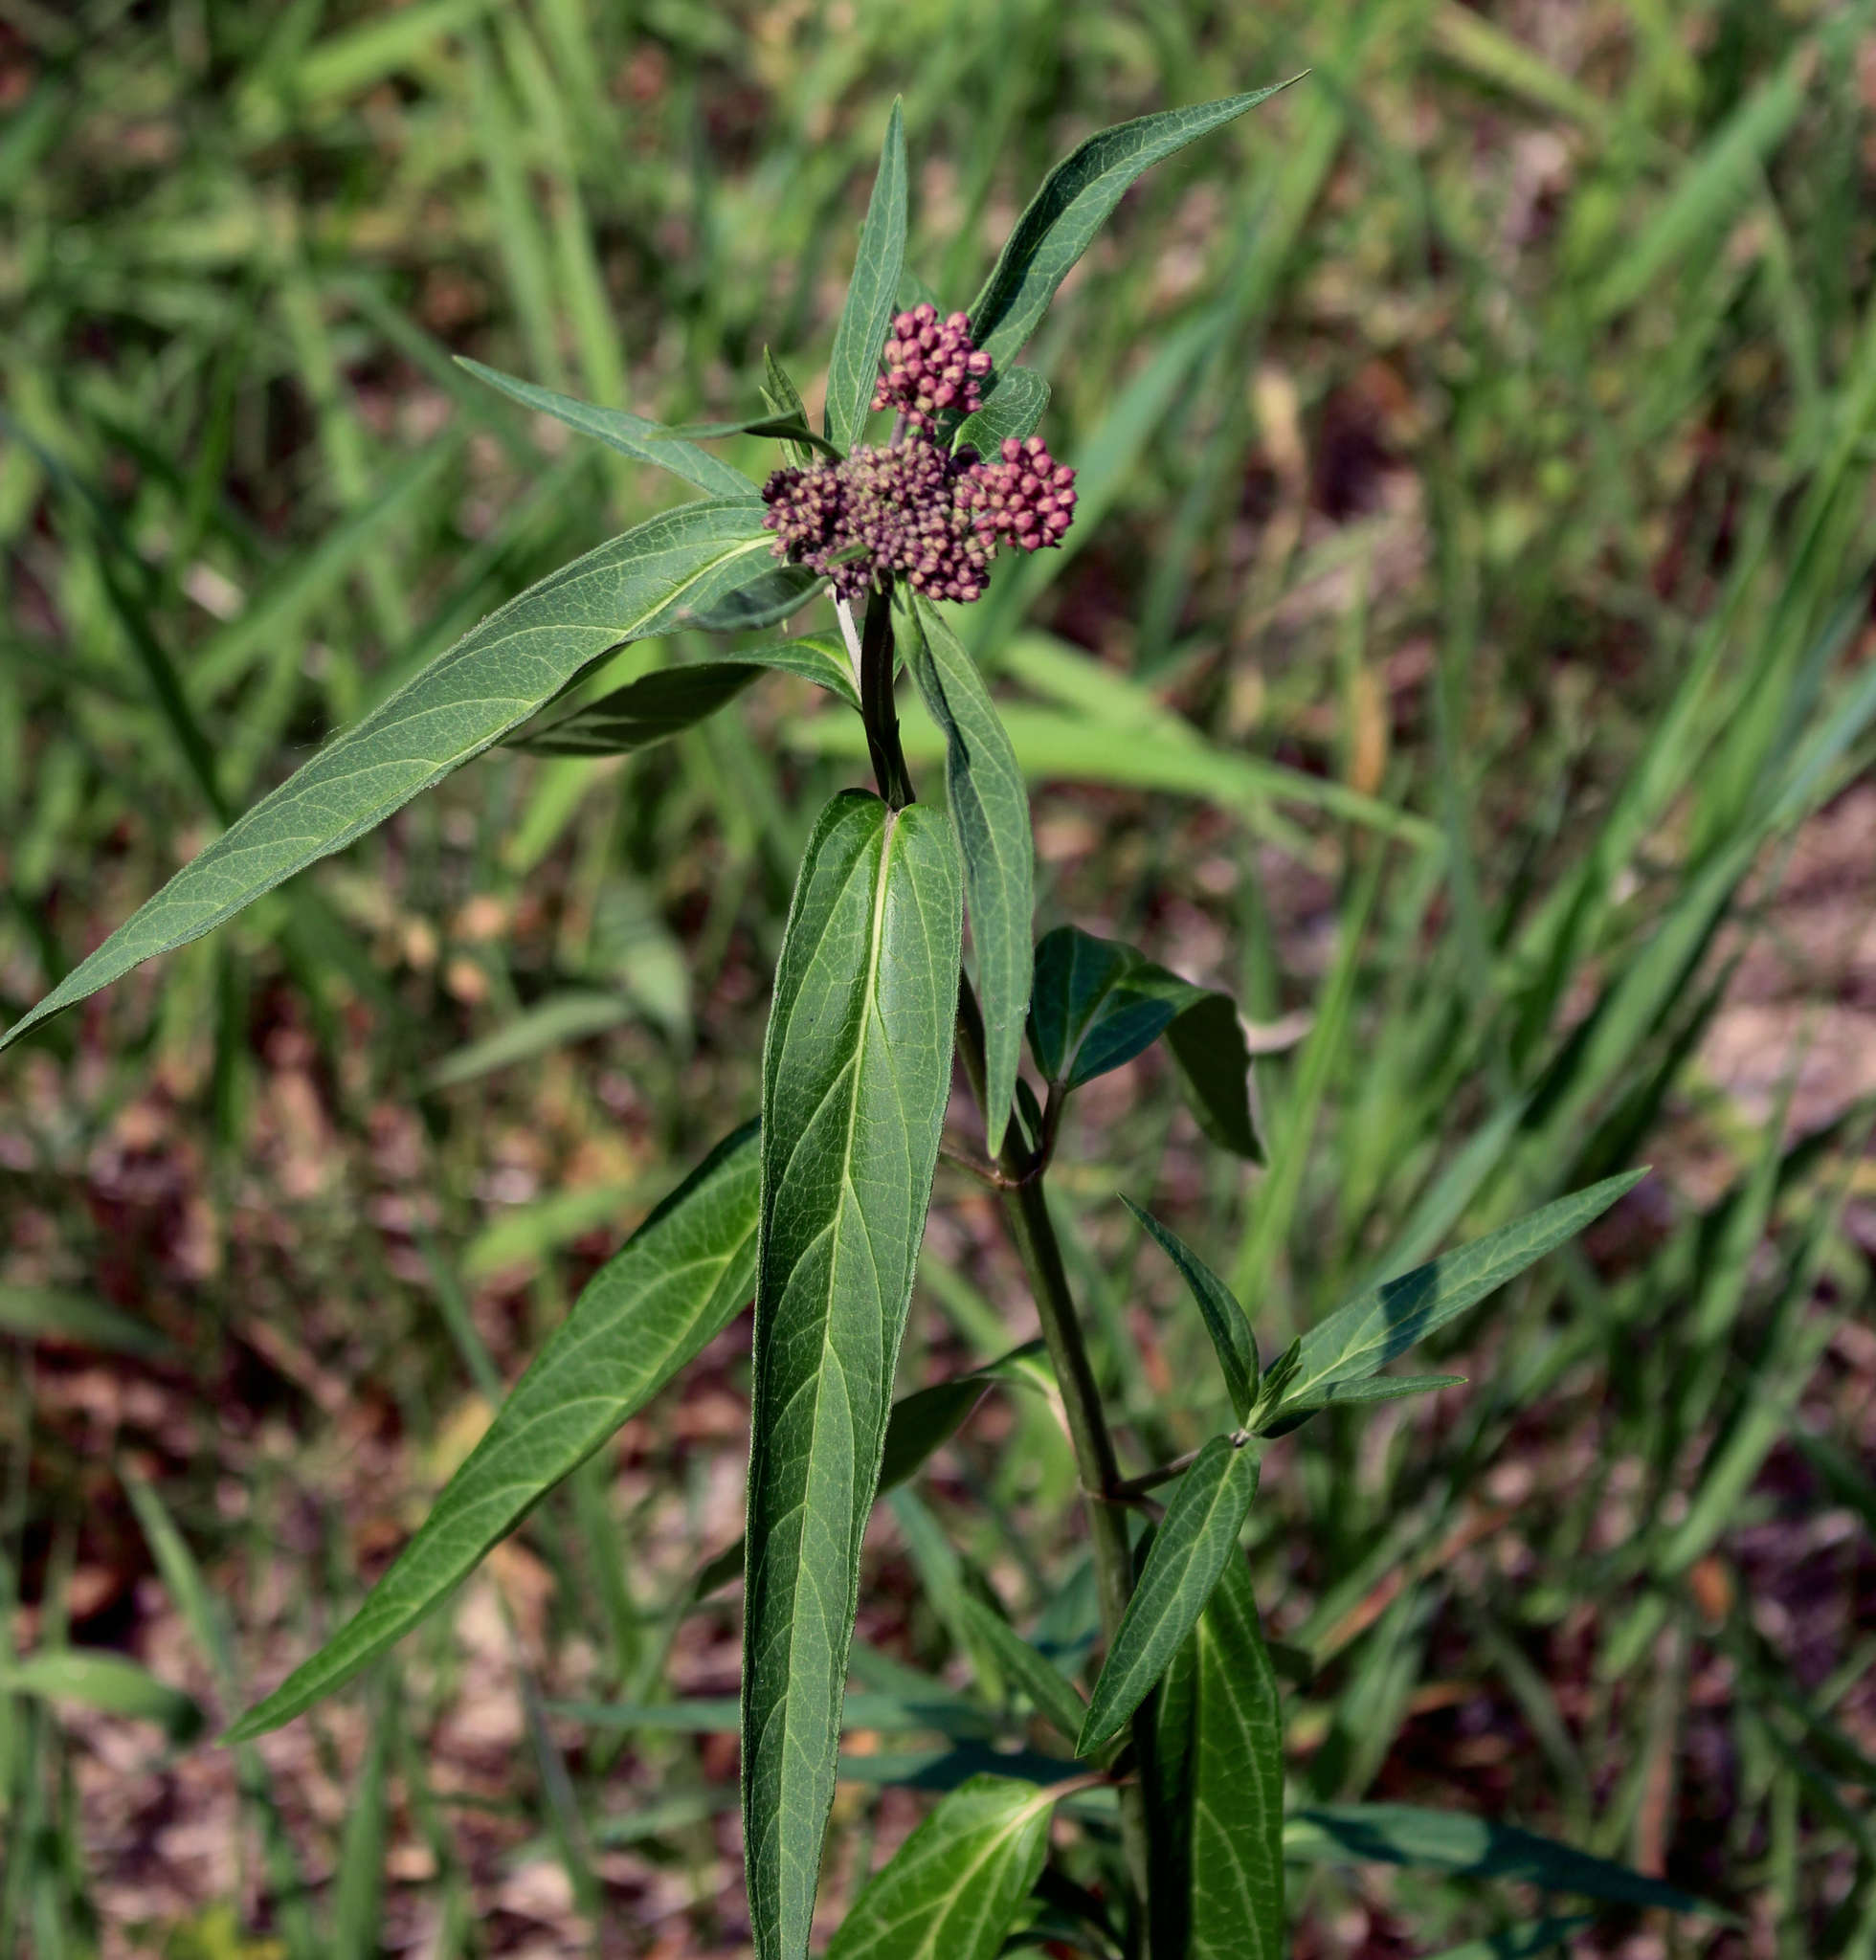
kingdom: Plantae
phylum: Tracheophyta
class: Magnoliopsida
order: Gentianales
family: Apocynaceae
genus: Asclepias
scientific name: Asclepias incarnata
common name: Swamp milkweed
